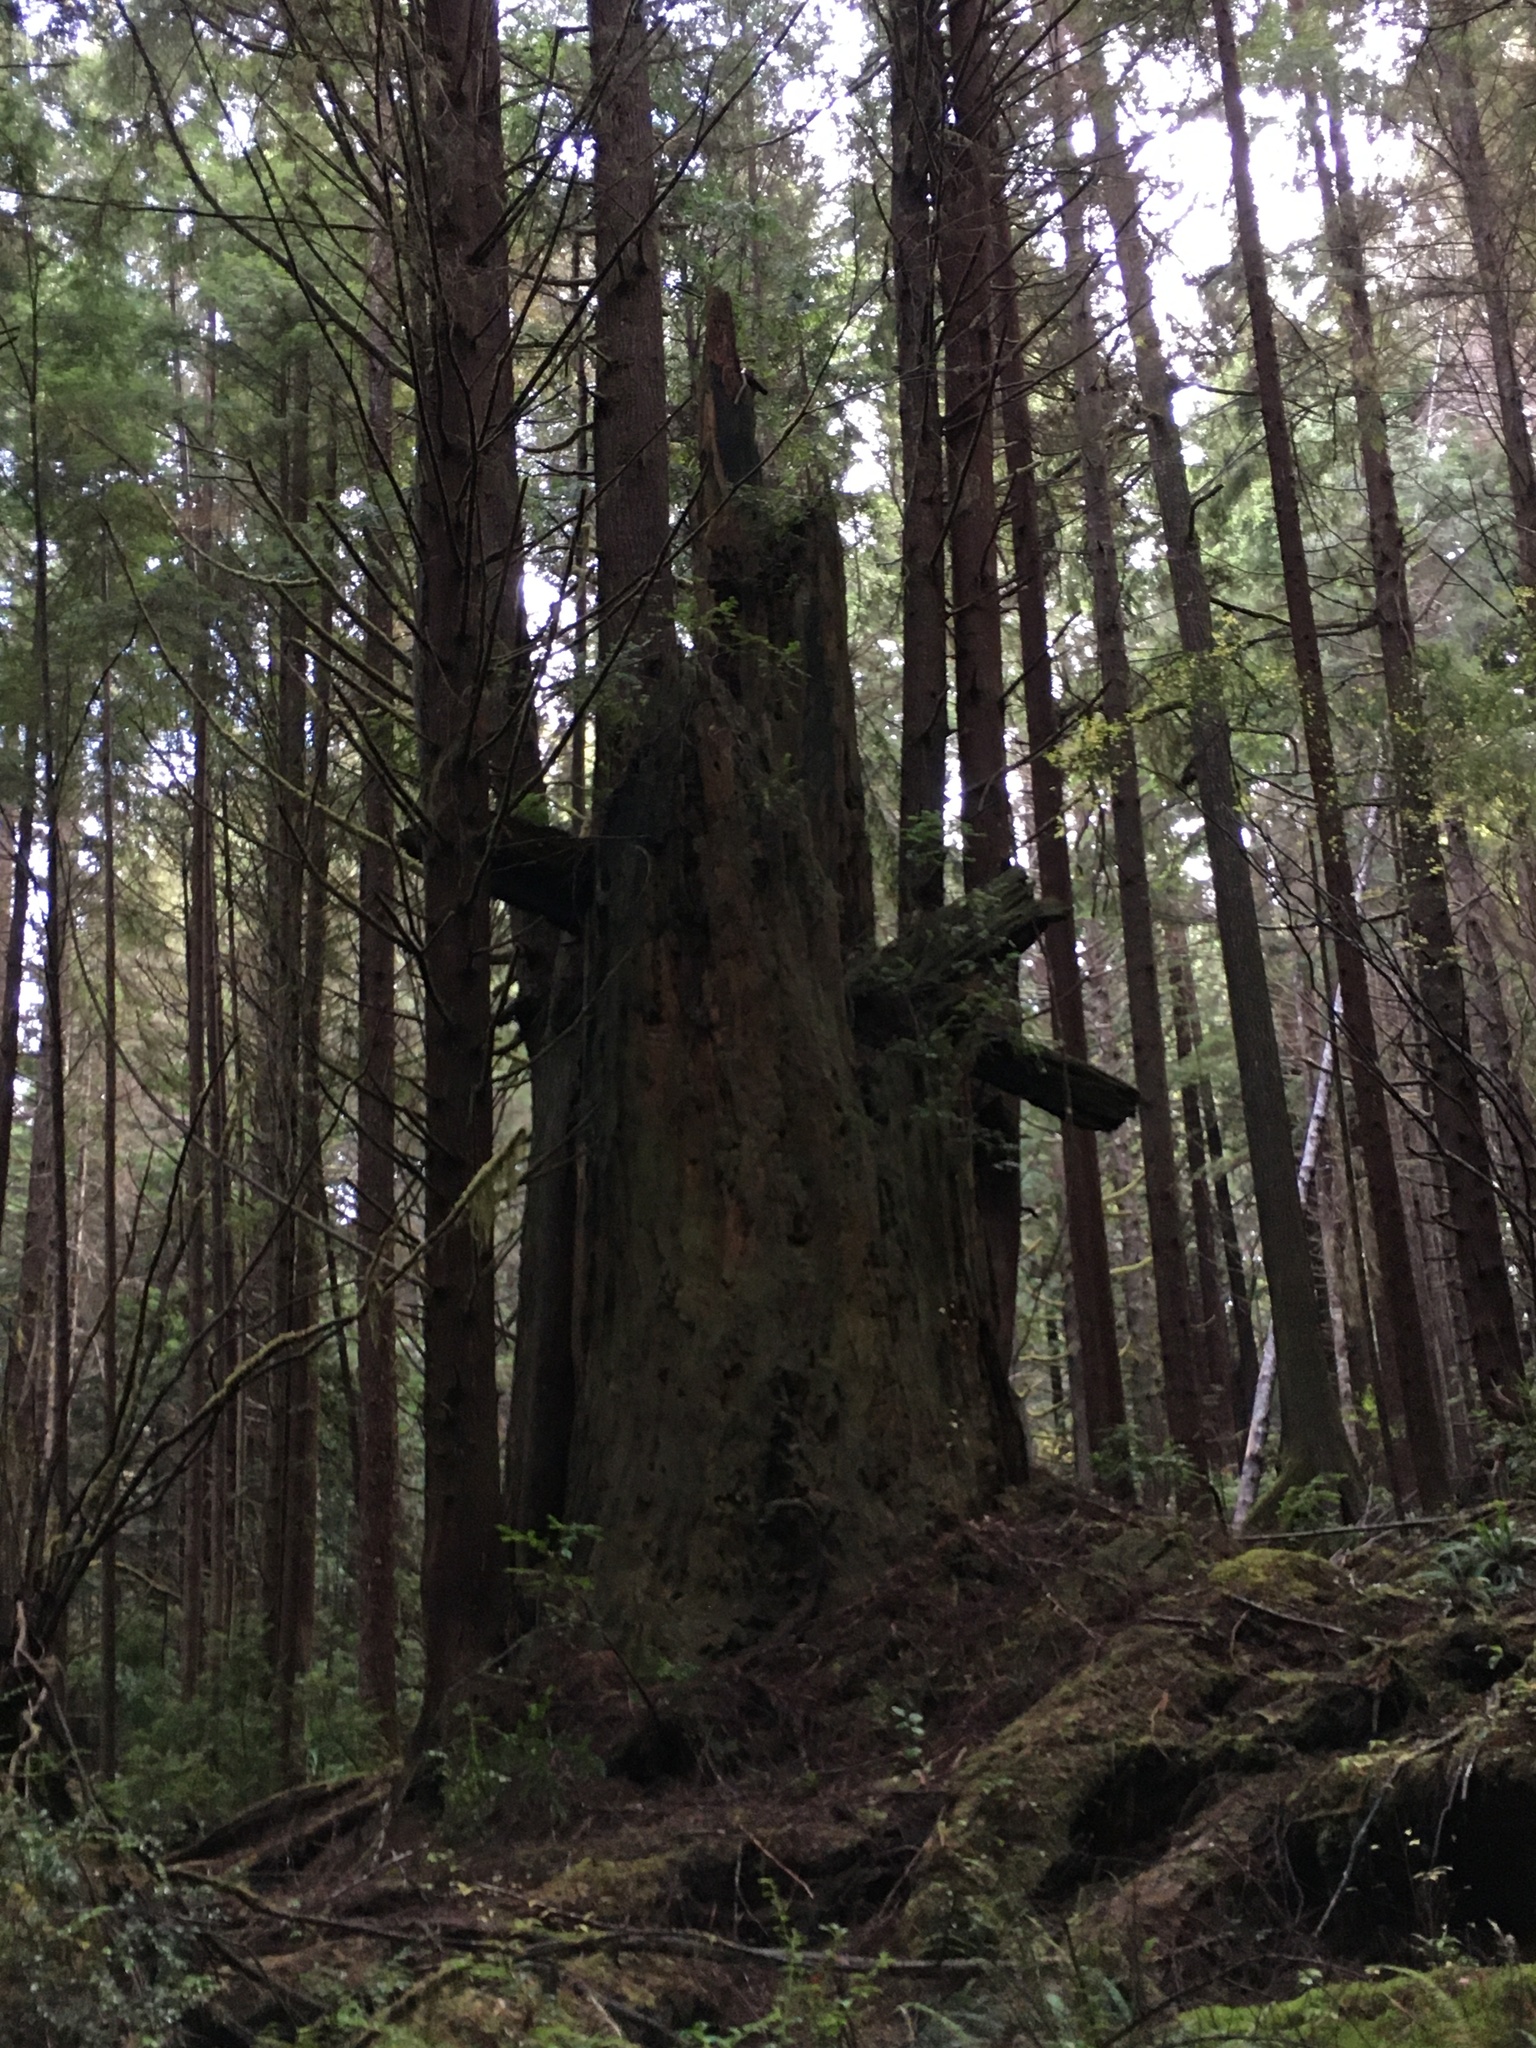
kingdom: Plantae
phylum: Tracheophyta
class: Pinopsida
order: Pinales
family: Pinaceae
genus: Picea
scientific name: Picea sitchensis
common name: Sitka spruce
